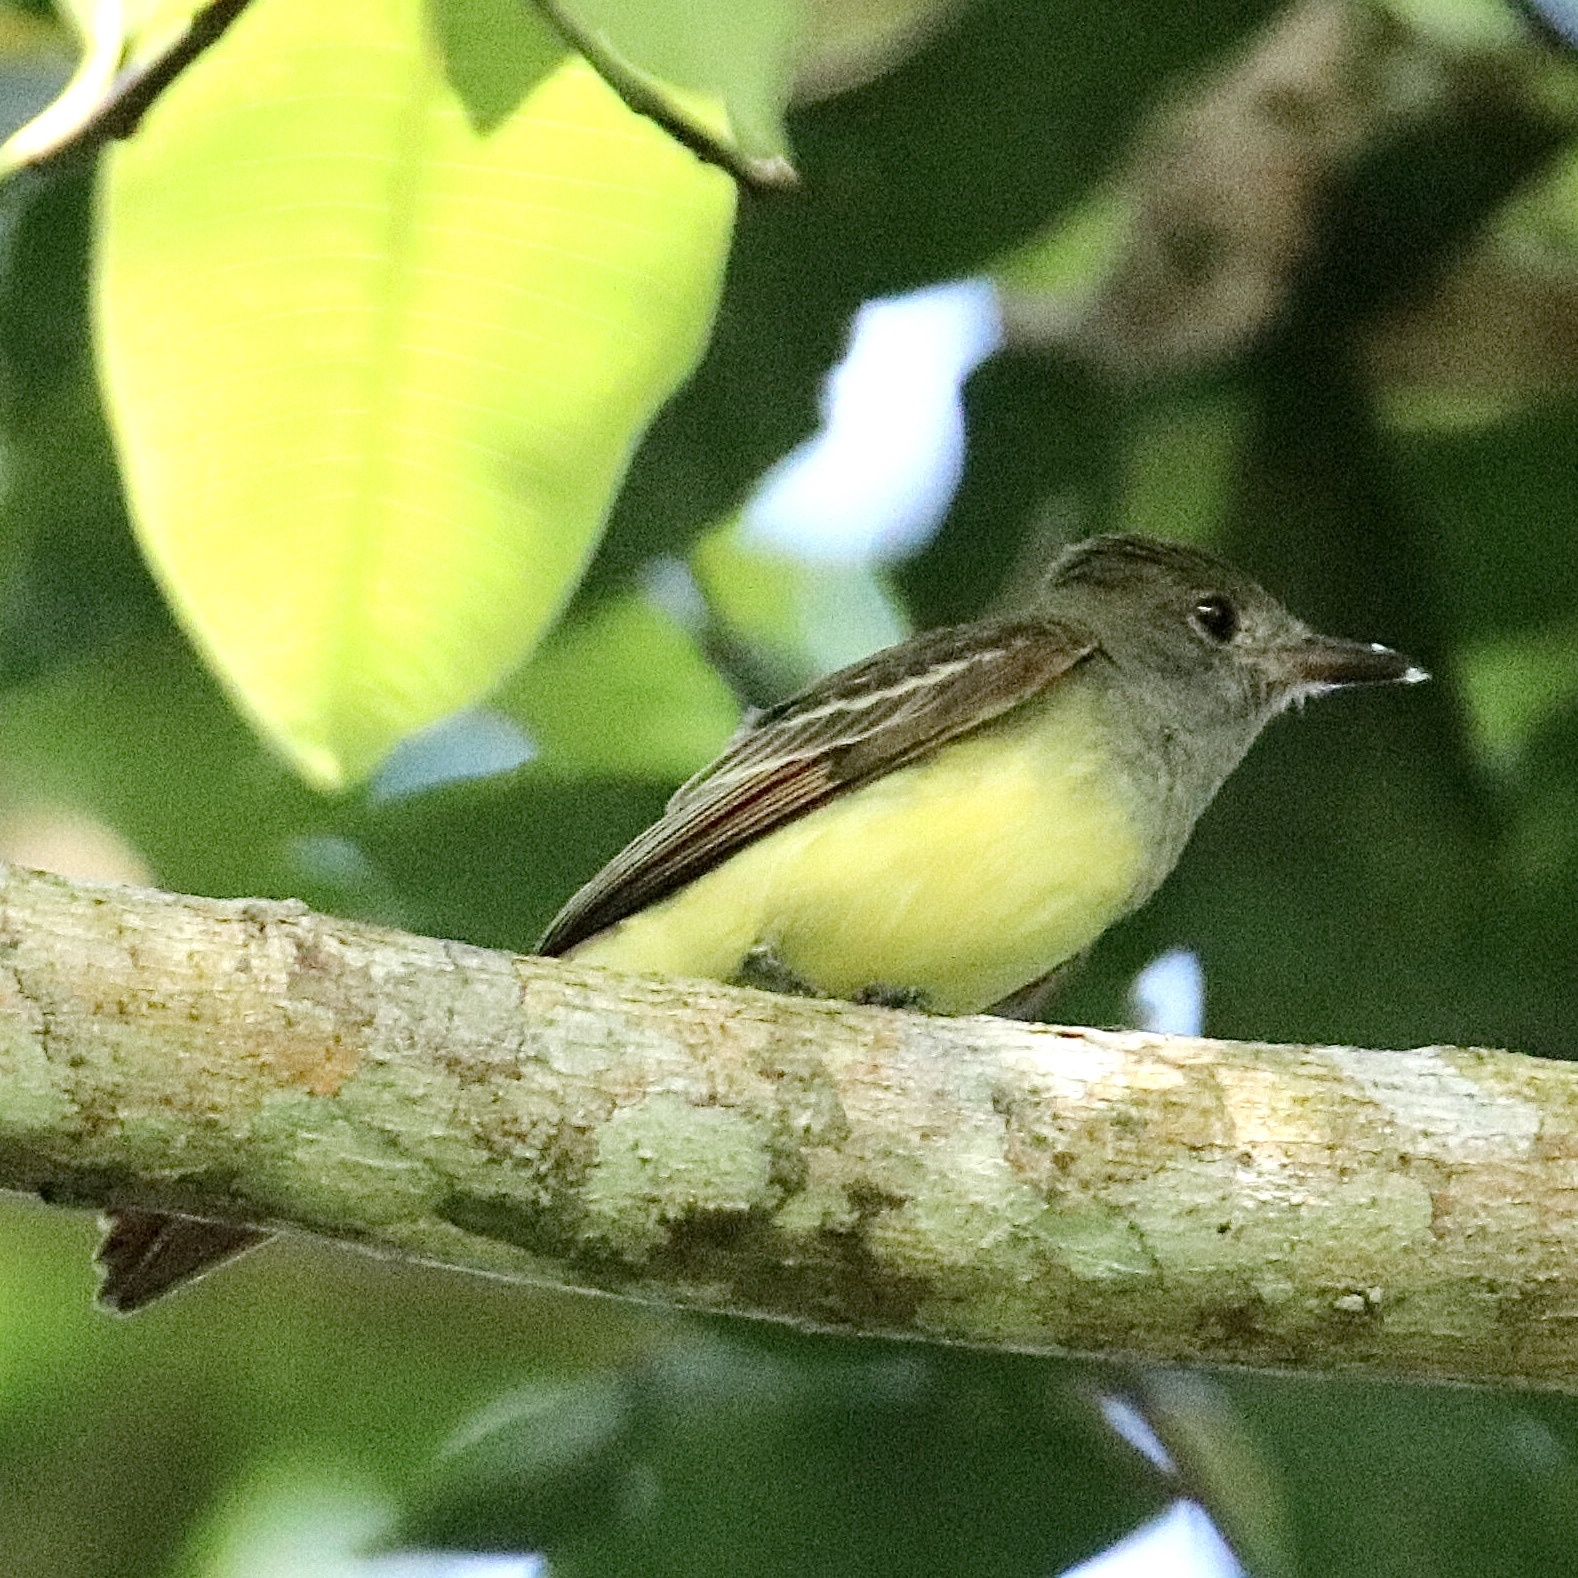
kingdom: Animalia
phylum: Chordata
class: Aves
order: Passeriformes
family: Tyrannidae
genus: Myiarchus
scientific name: Myiarchus crinitus
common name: Great crested flycatcher
